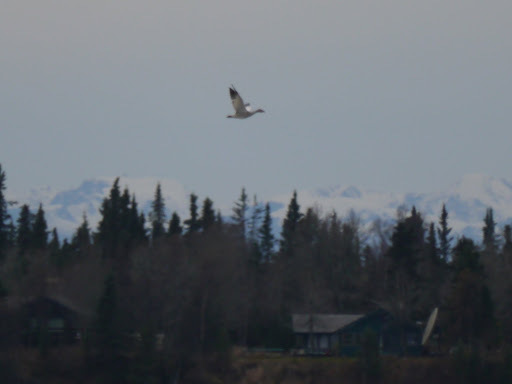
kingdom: Animalia
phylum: Chordata
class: Aves
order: Anseriformes
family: Anatidae
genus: Anser
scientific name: Anser caerulescens
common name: Snow goose
